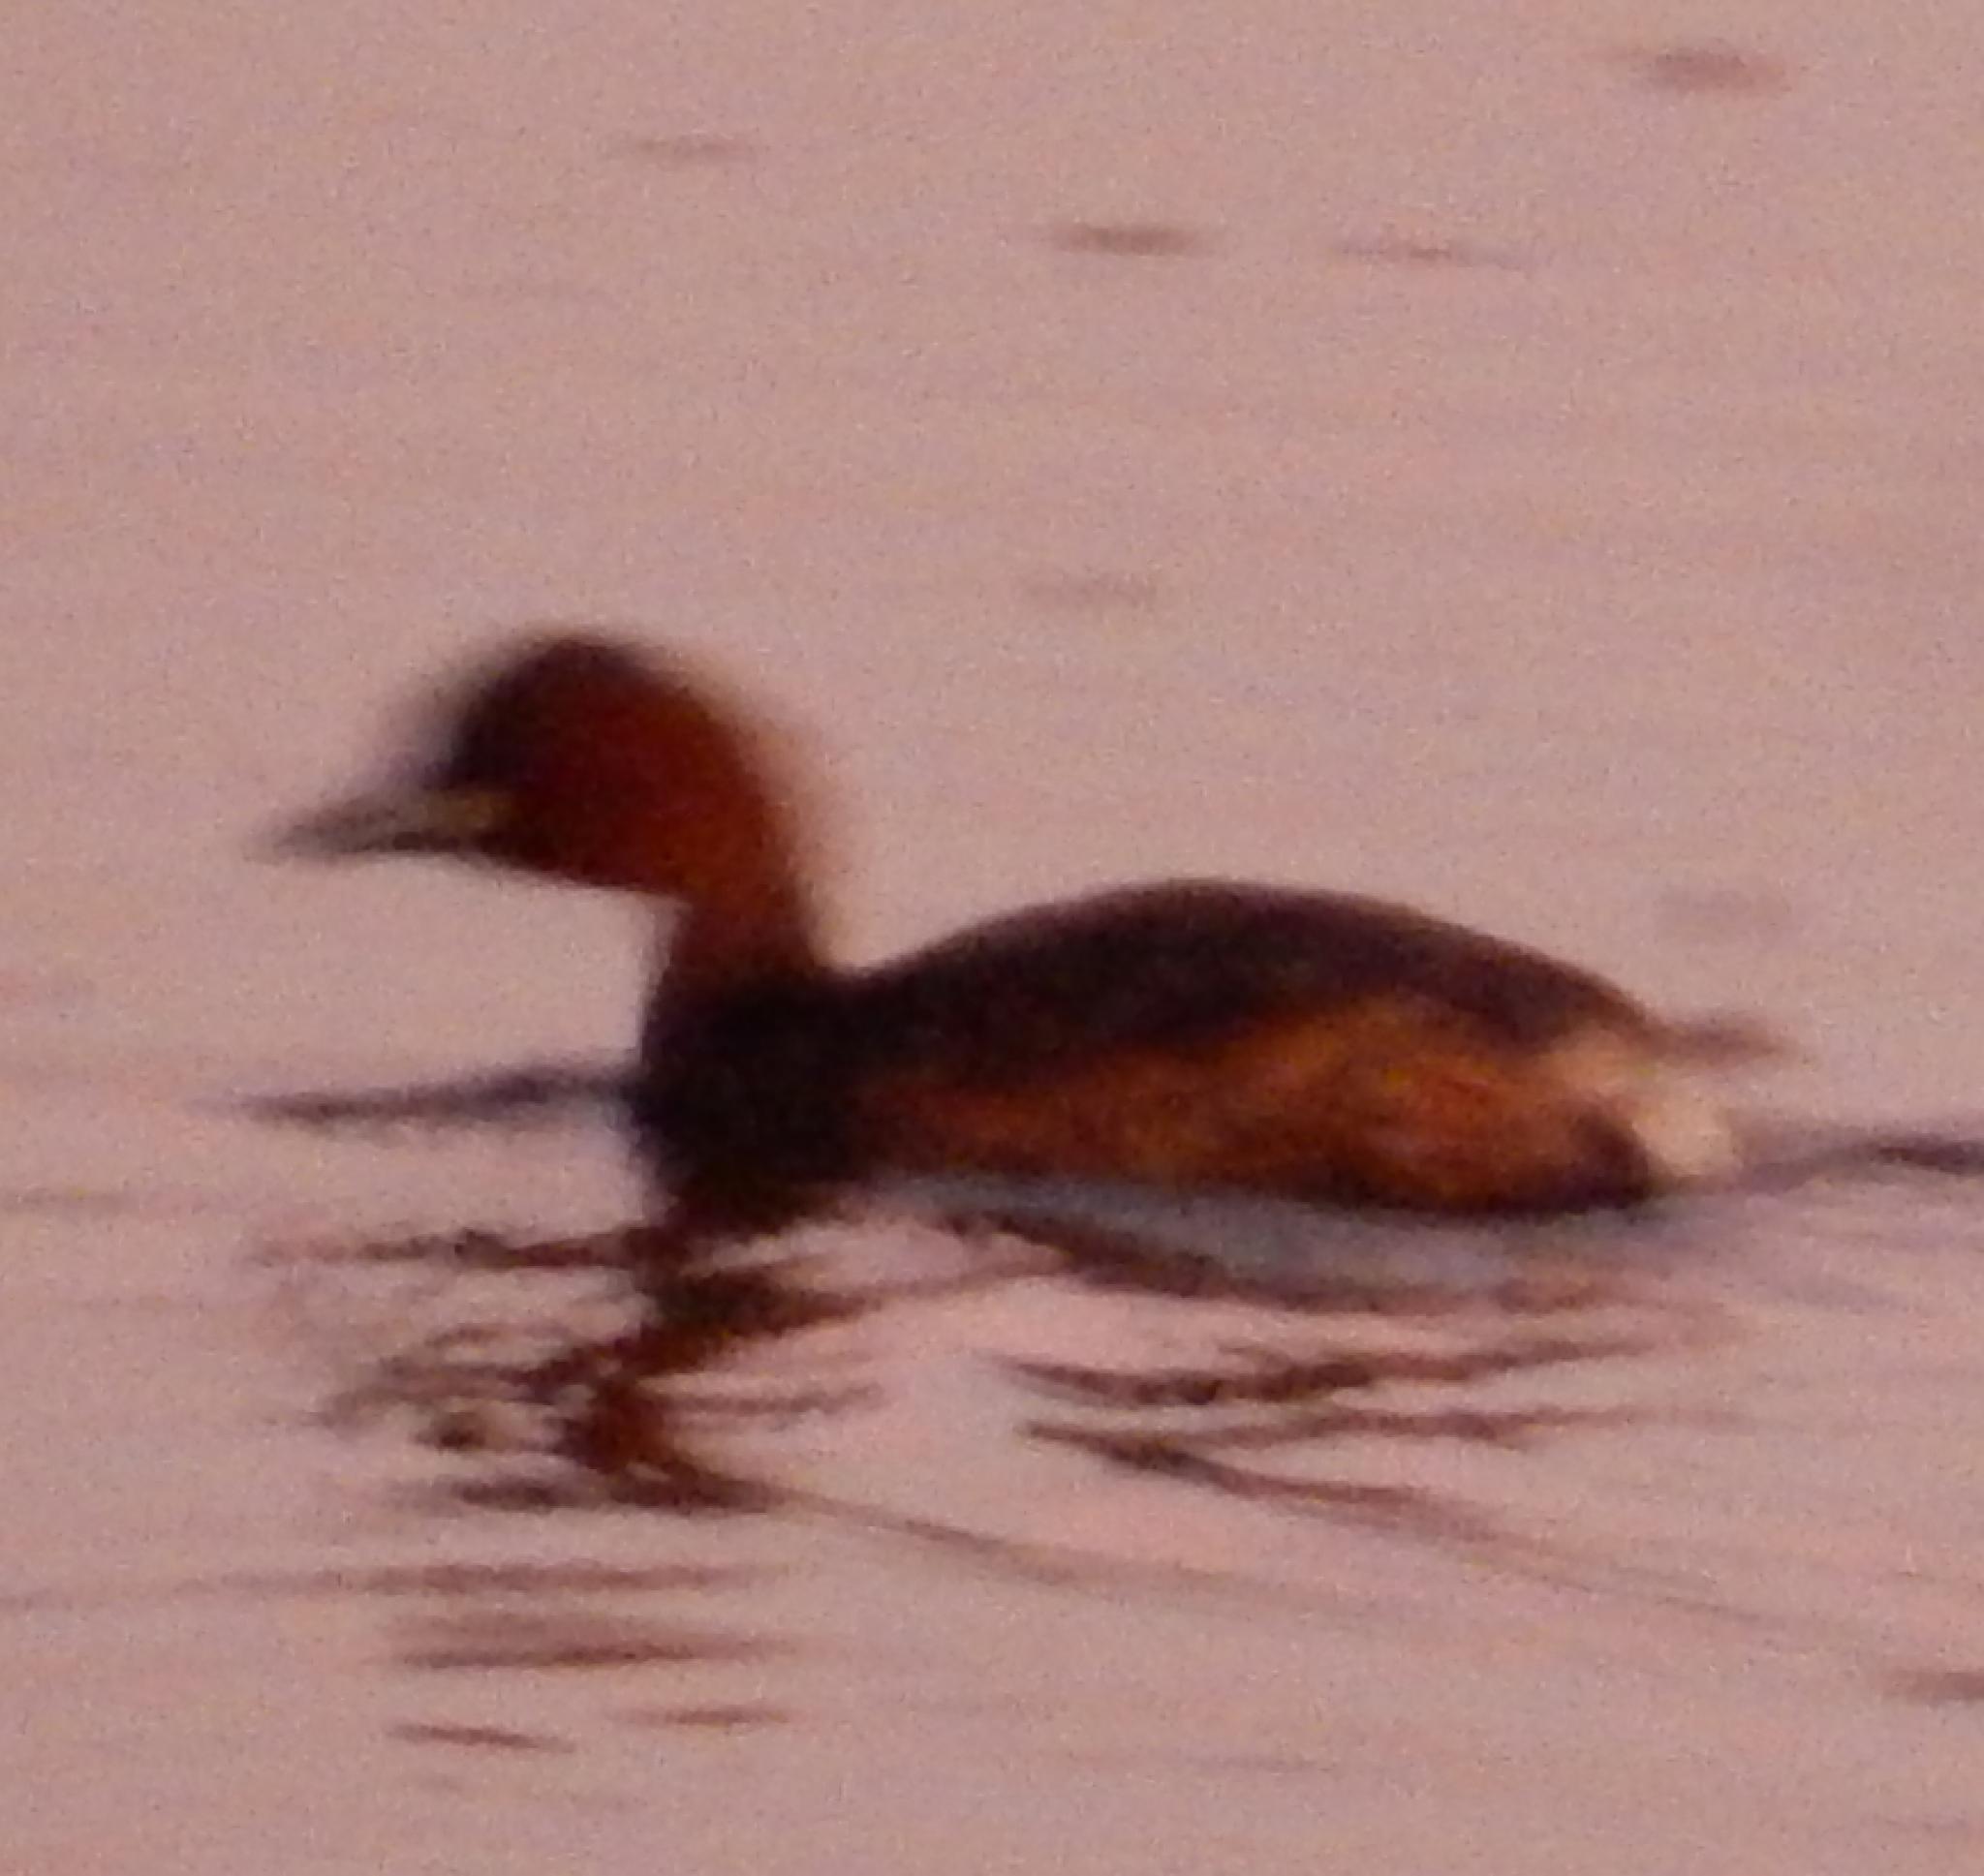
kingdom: Animalia
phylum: Chordata
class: Aves
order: Podicipediformes
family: Podicipedidae
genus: Tachybaptus
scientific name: Tachybaptus ruficollis
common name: Little grebe
